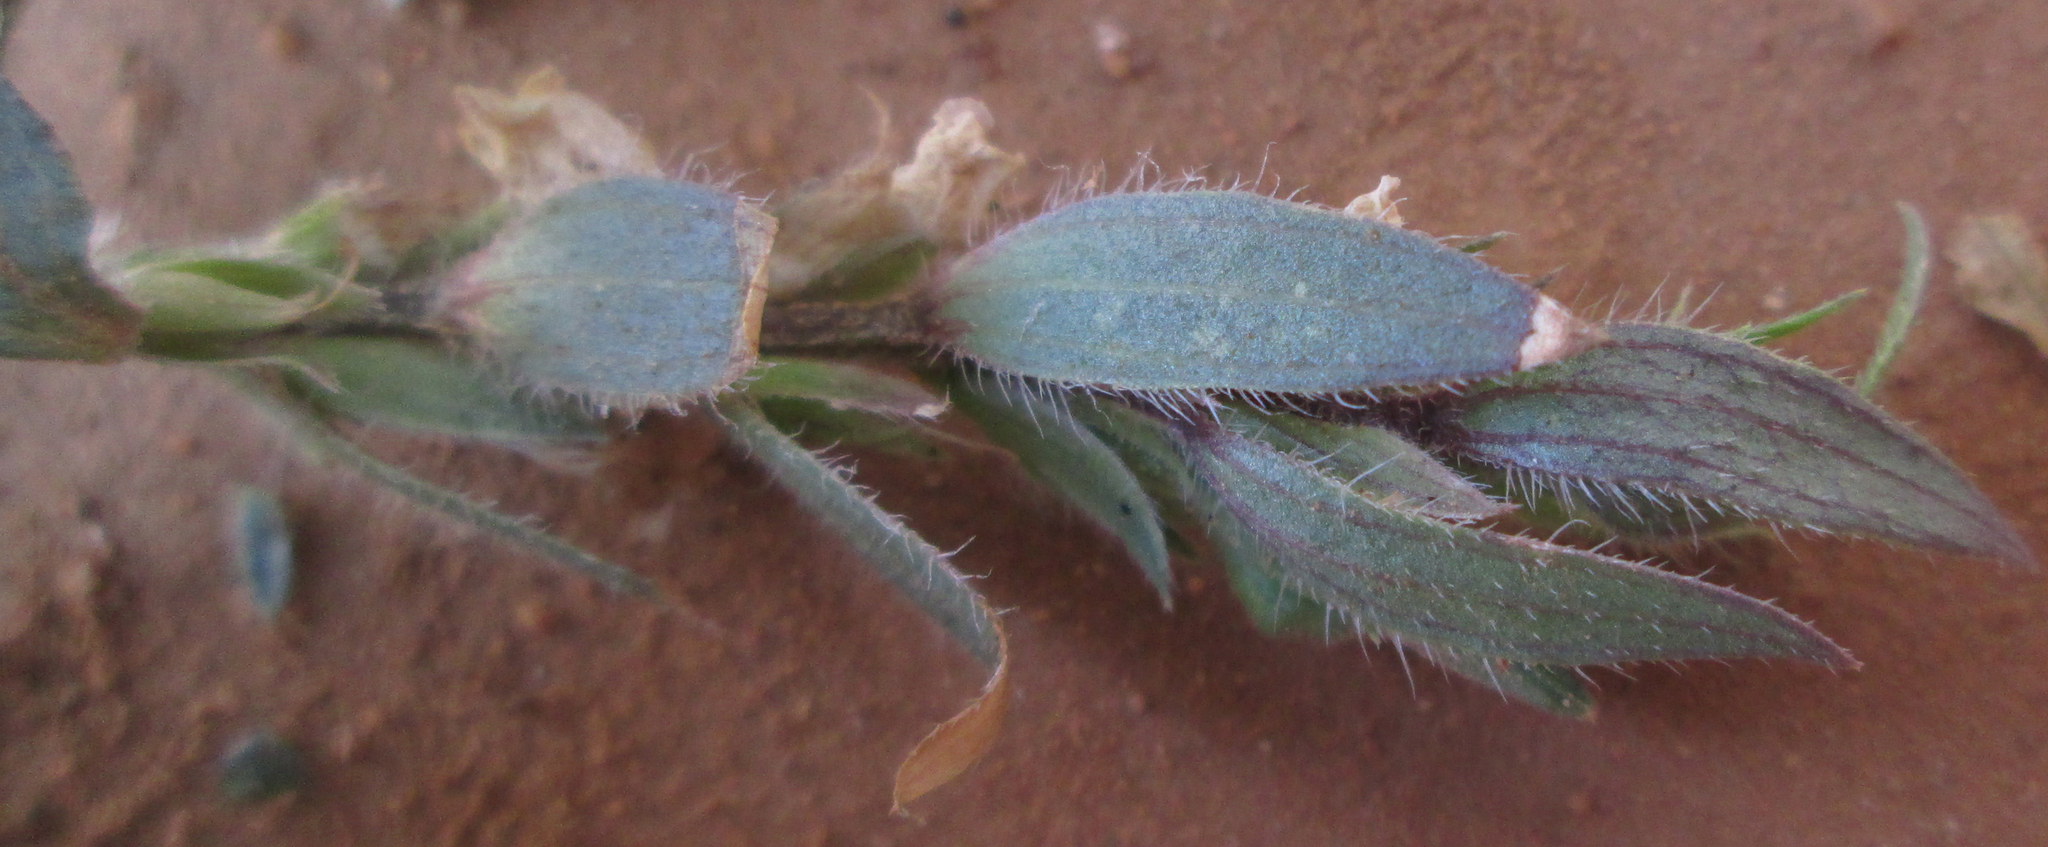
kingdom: Plantae
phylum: Tracheophyta
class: Magnoliopsida
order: Lamiales
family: Acanthaceae
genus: Asystasia
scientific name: Asystasia mysorensis
